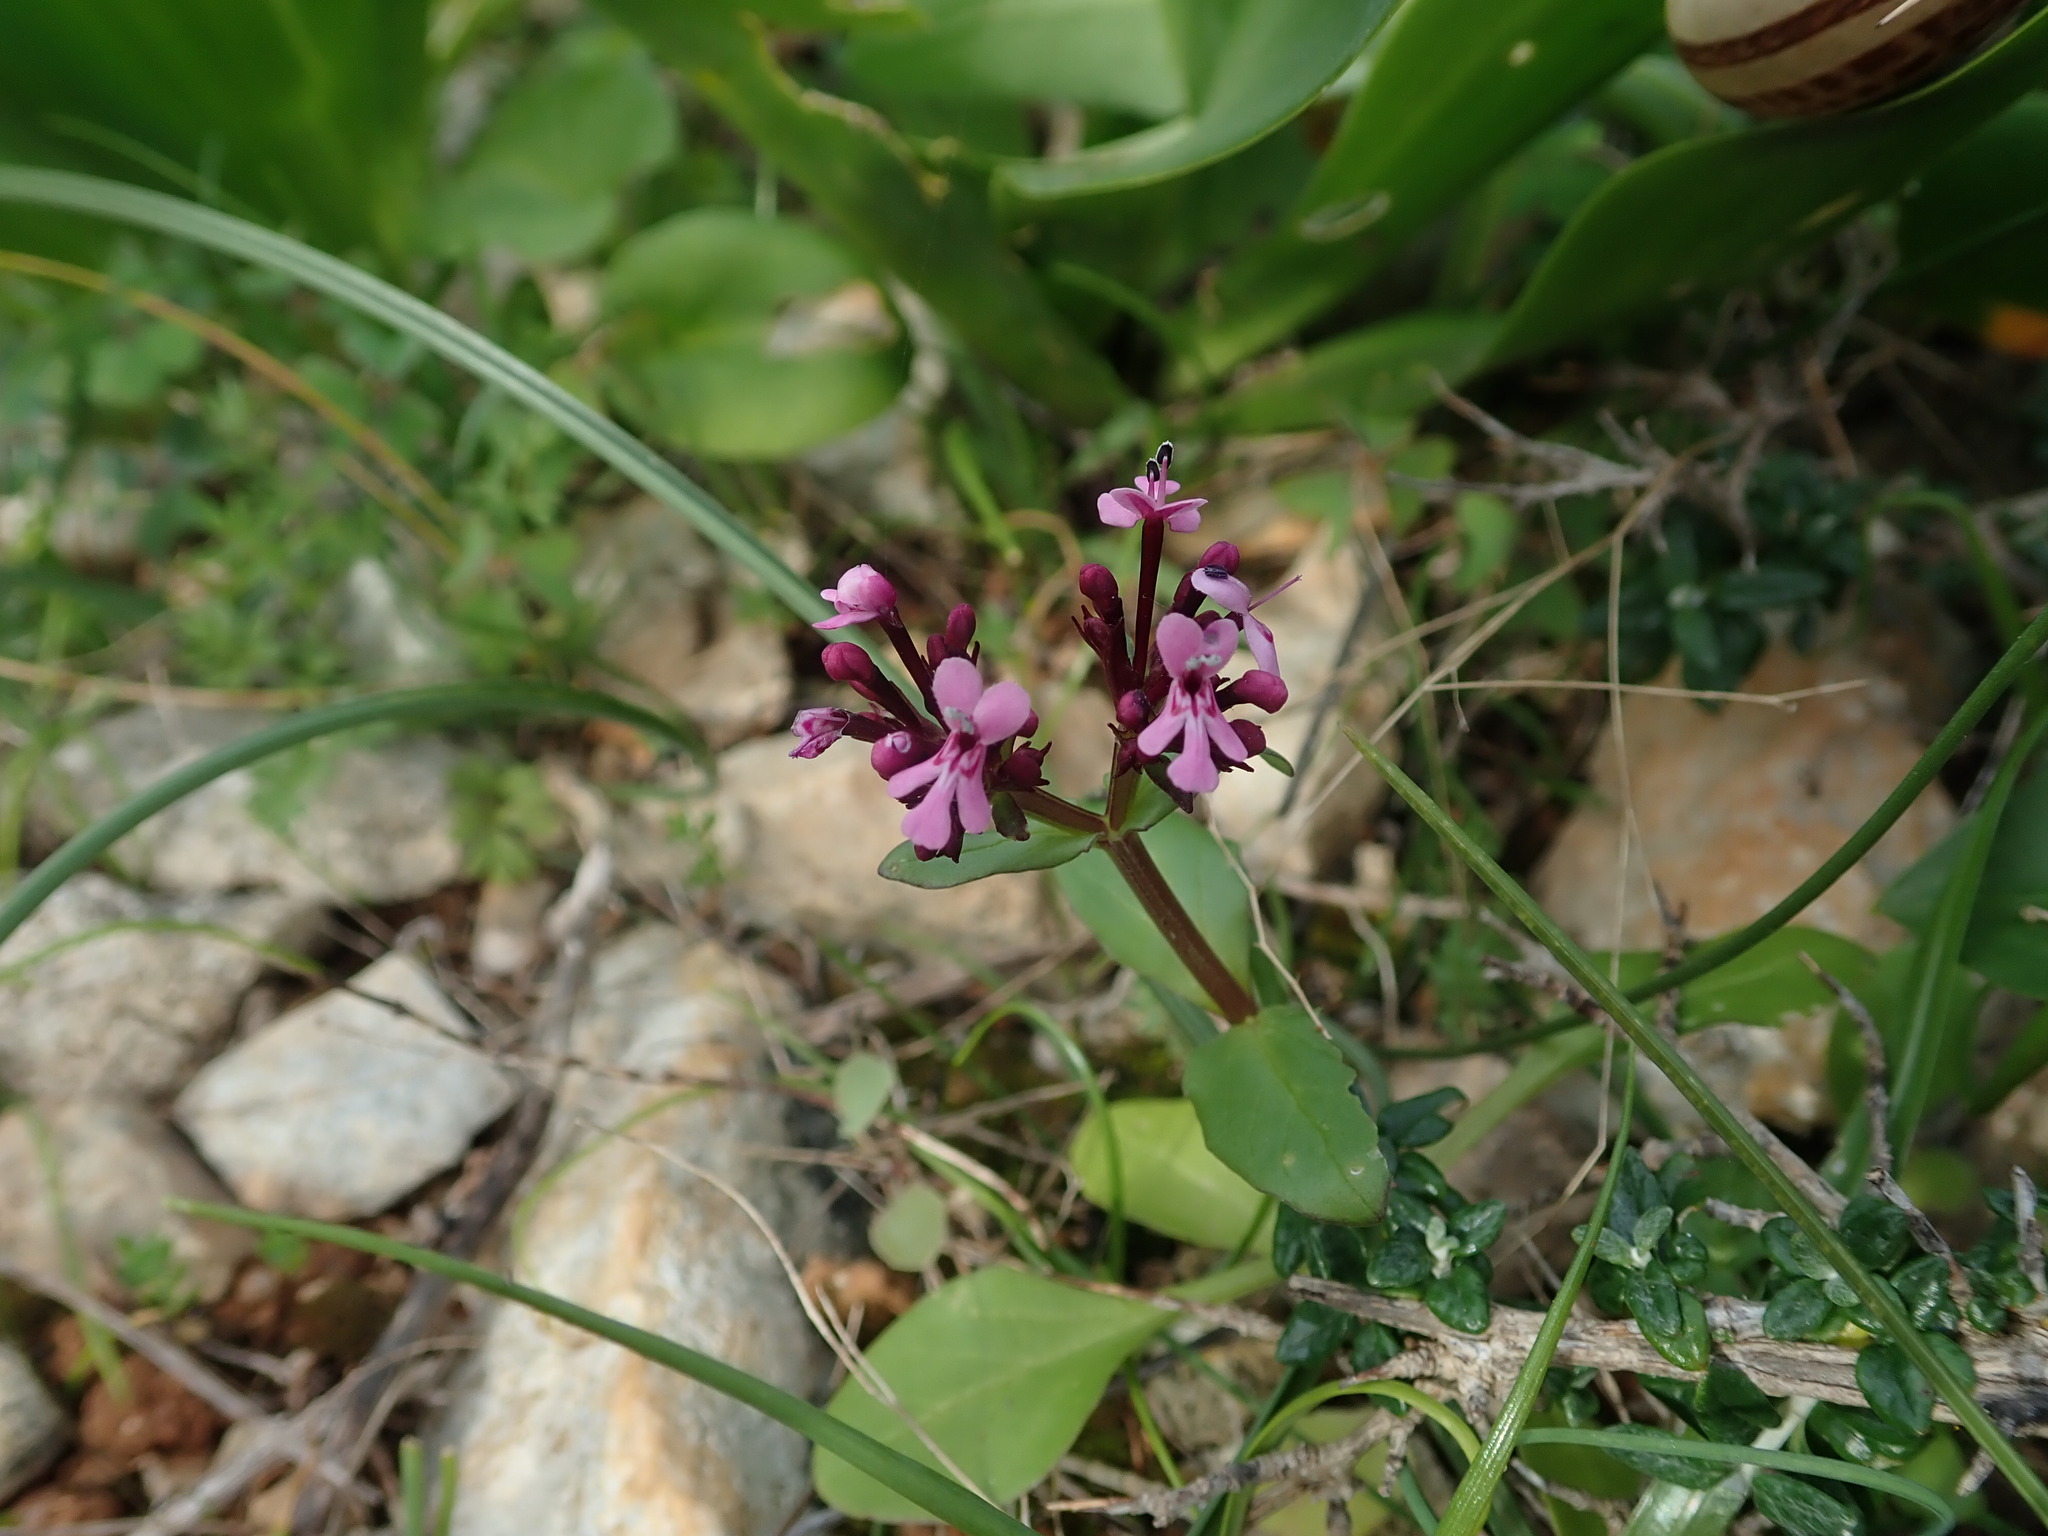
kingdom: Plantae
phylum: Tracheophyta
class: Magnoliopsida
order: Dipsacales
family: Caprifoliaceae
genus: Fedia
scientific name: Fedia graciliflora
